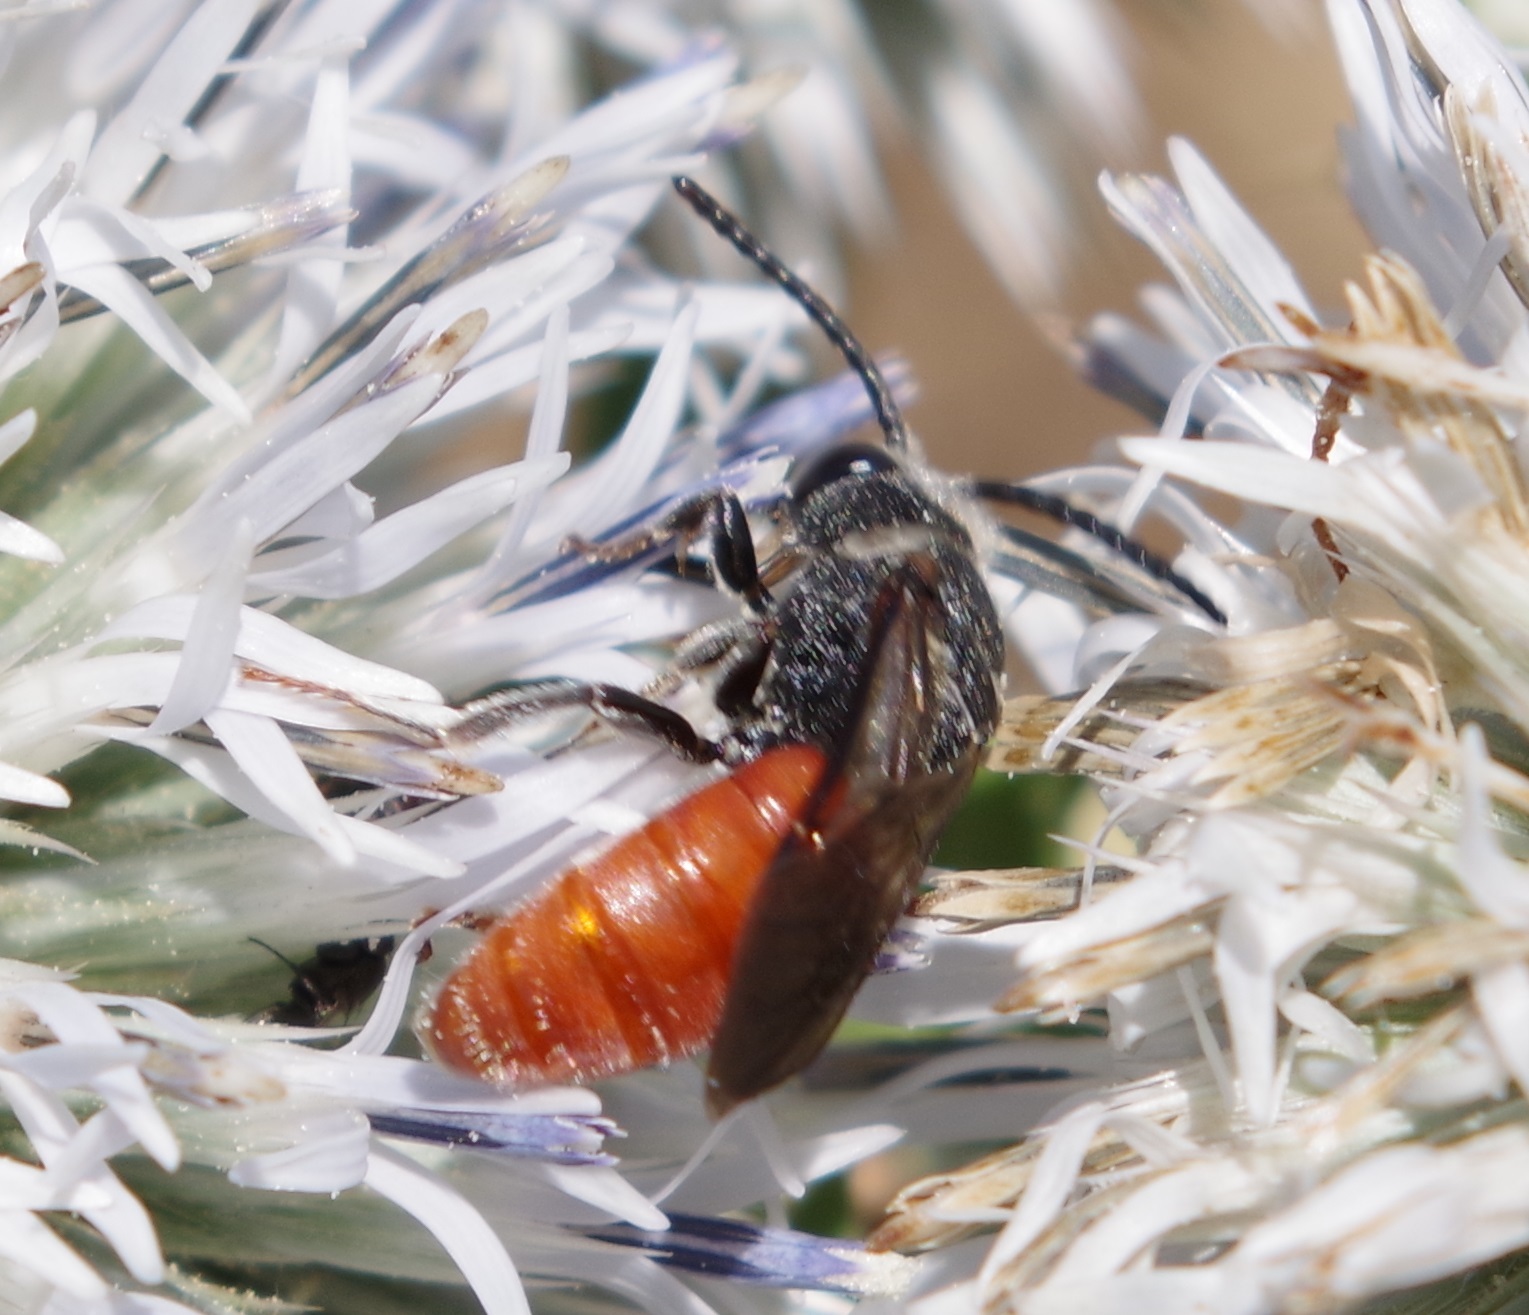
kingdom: Animalia
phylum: Arthropoda
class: Insecta
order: Hymenoptera
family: Halictidae
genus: Sphecodes
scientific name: Sphecodes albilabris
